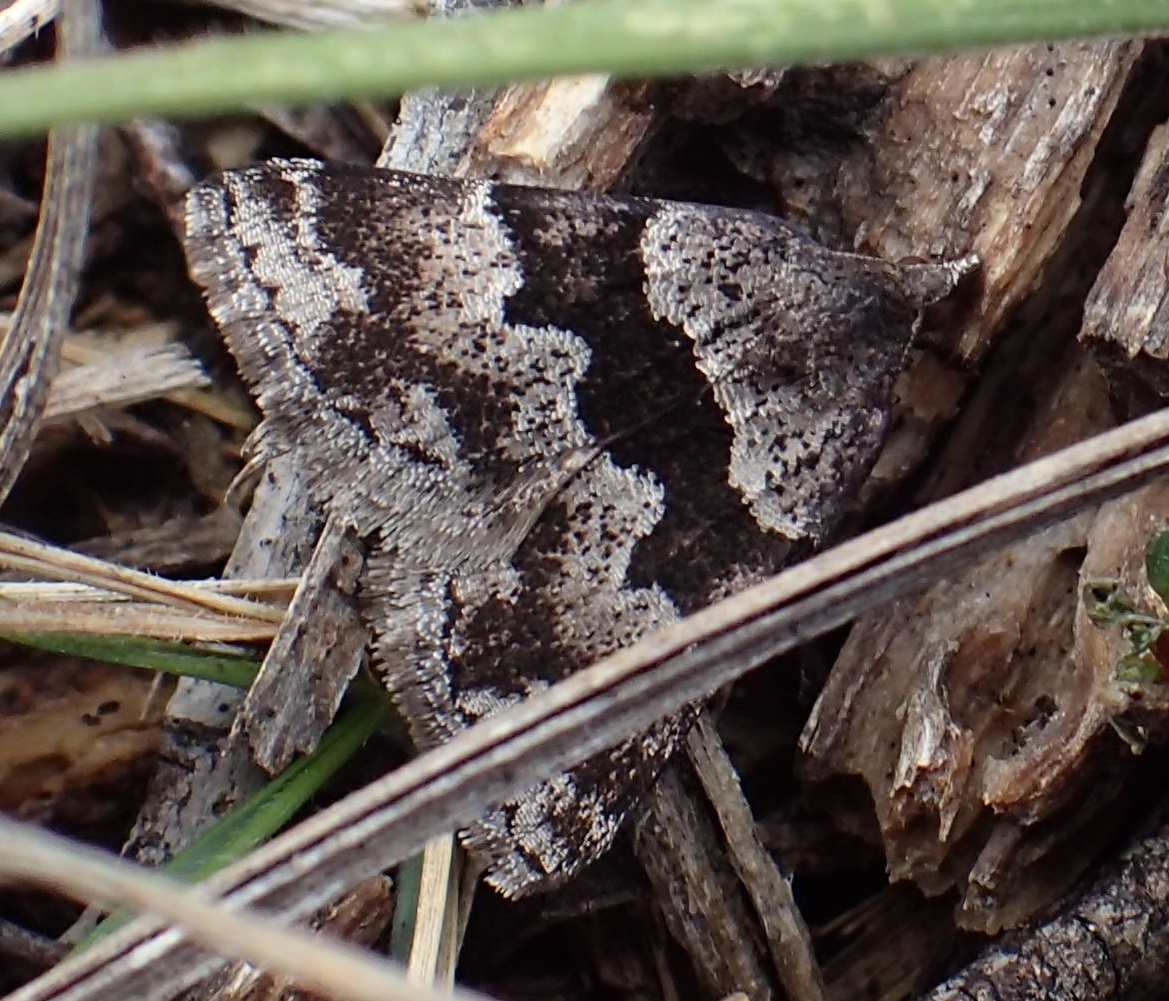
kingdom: Animalia
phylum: Arthropoda
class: Insecta
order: Lepidoptera
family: Geometridae
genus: Dichromodes
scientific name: Dichromodes ainaria
